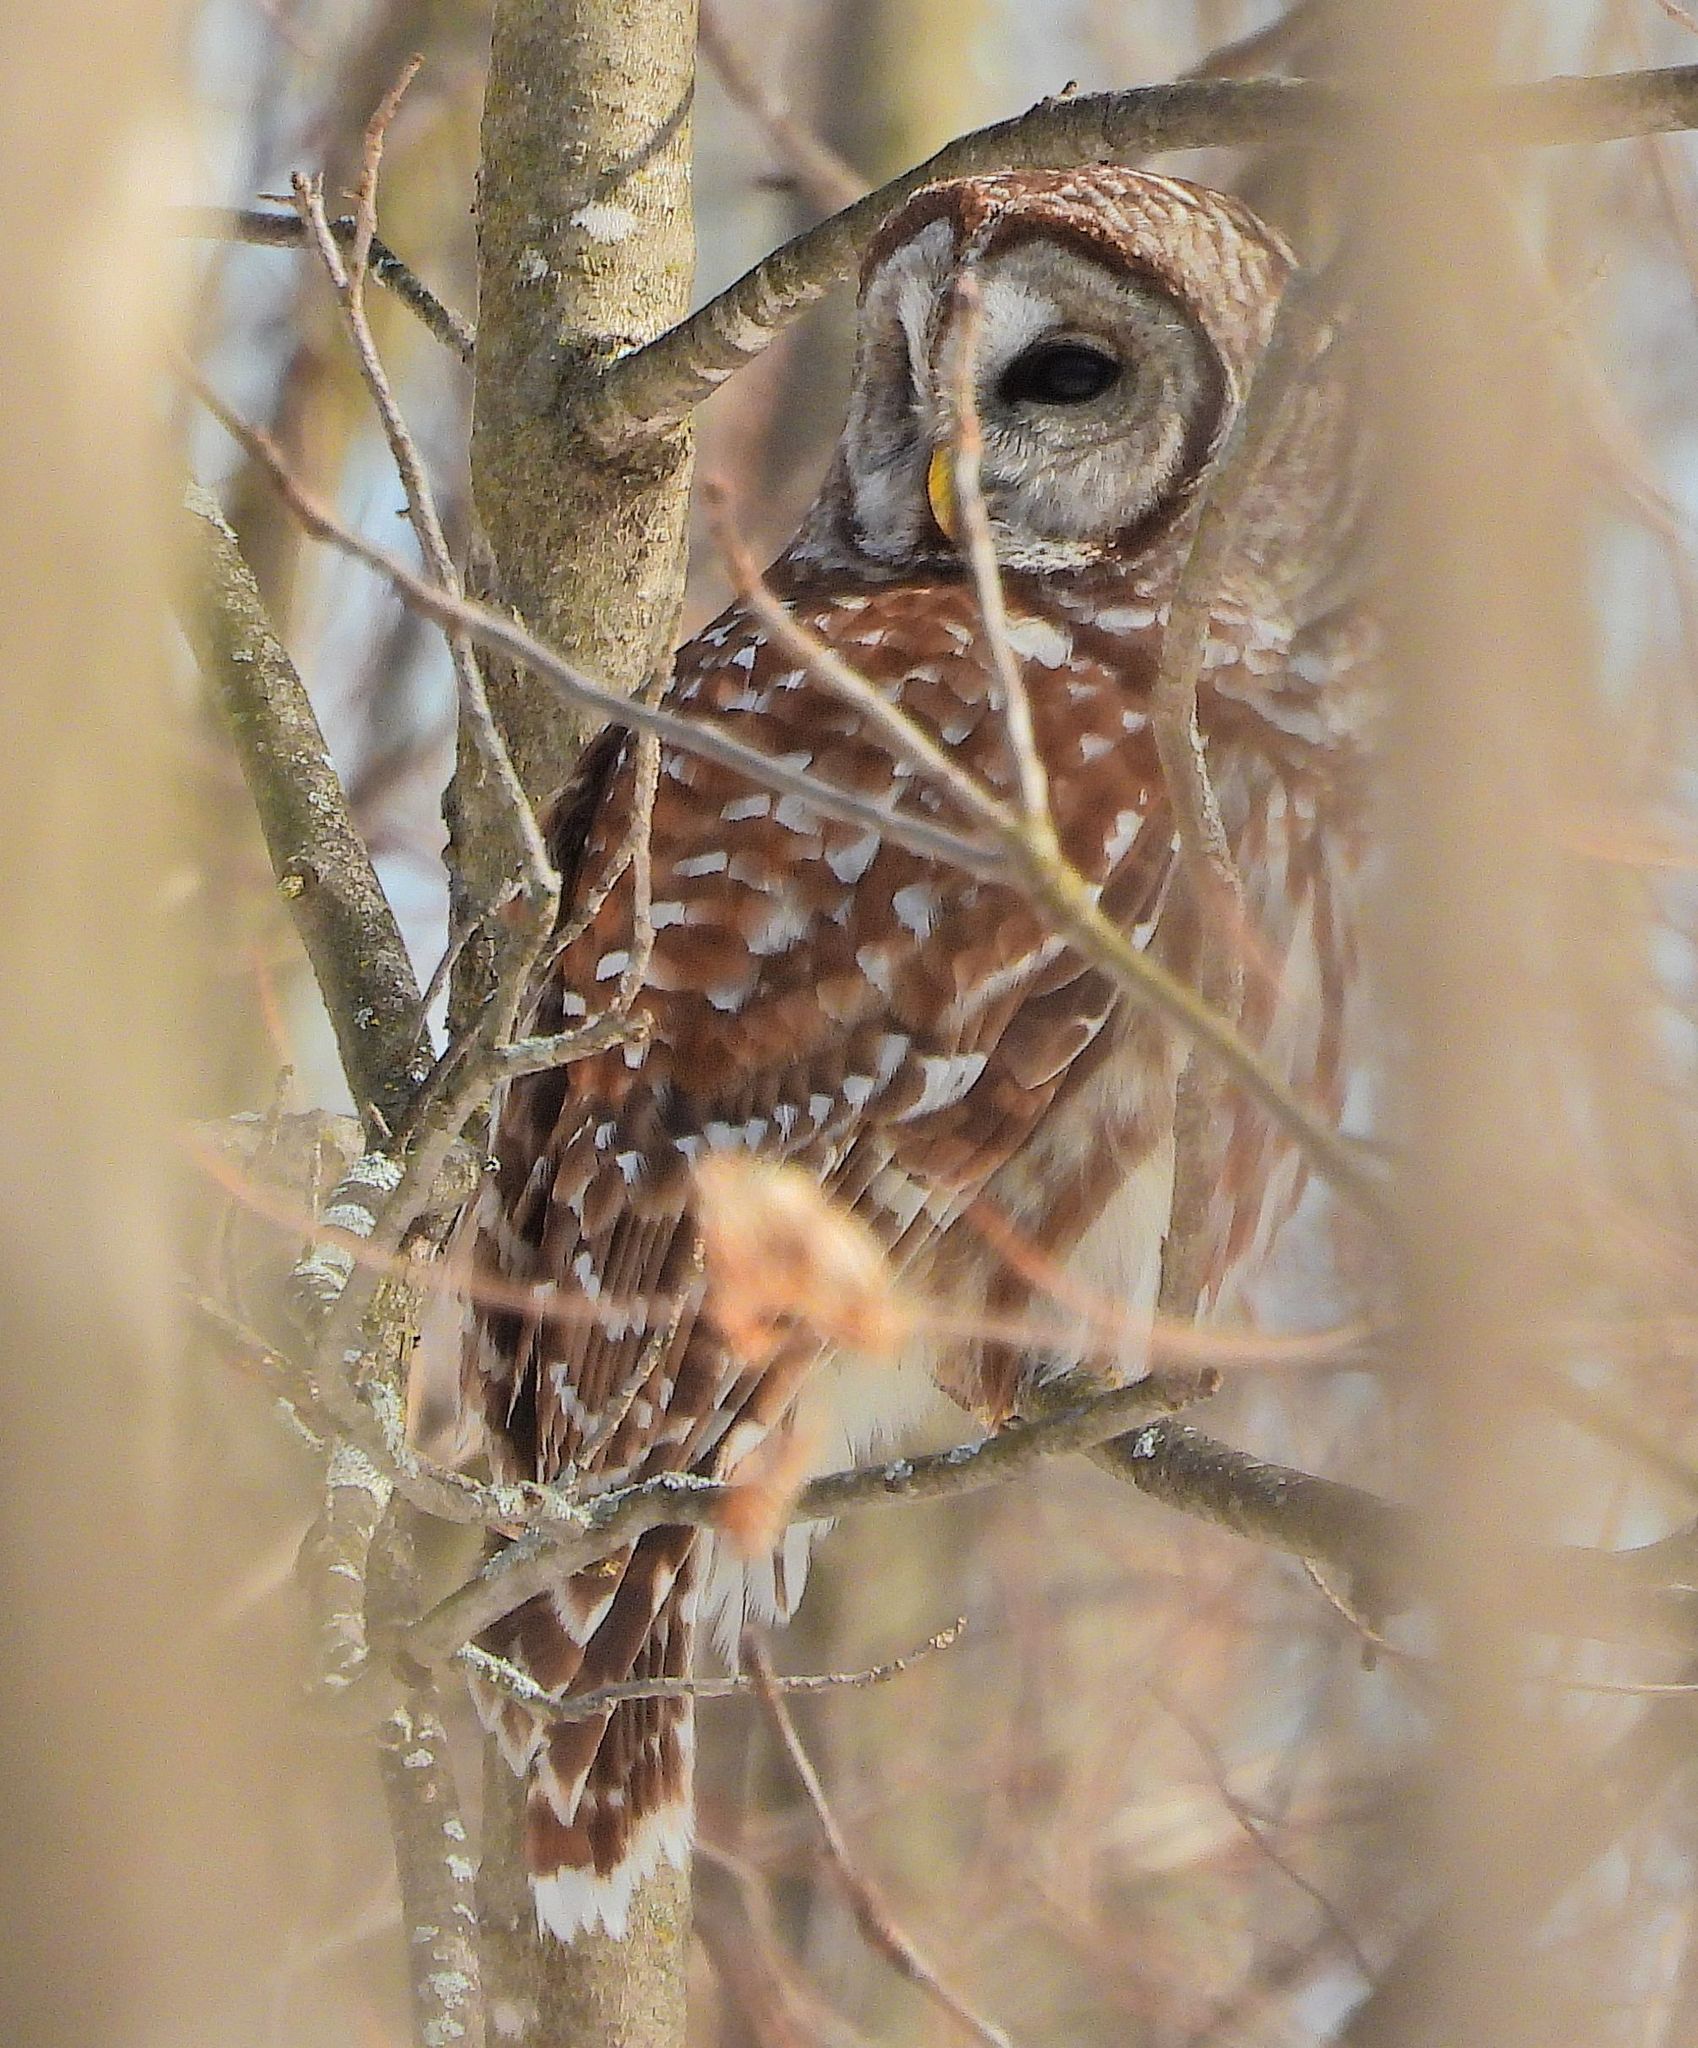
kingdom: Animalia
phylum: Chordata
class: Aves
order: Strigiformes
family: Strigidae
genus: Strix
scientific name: Strix varia
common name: Barred owl
